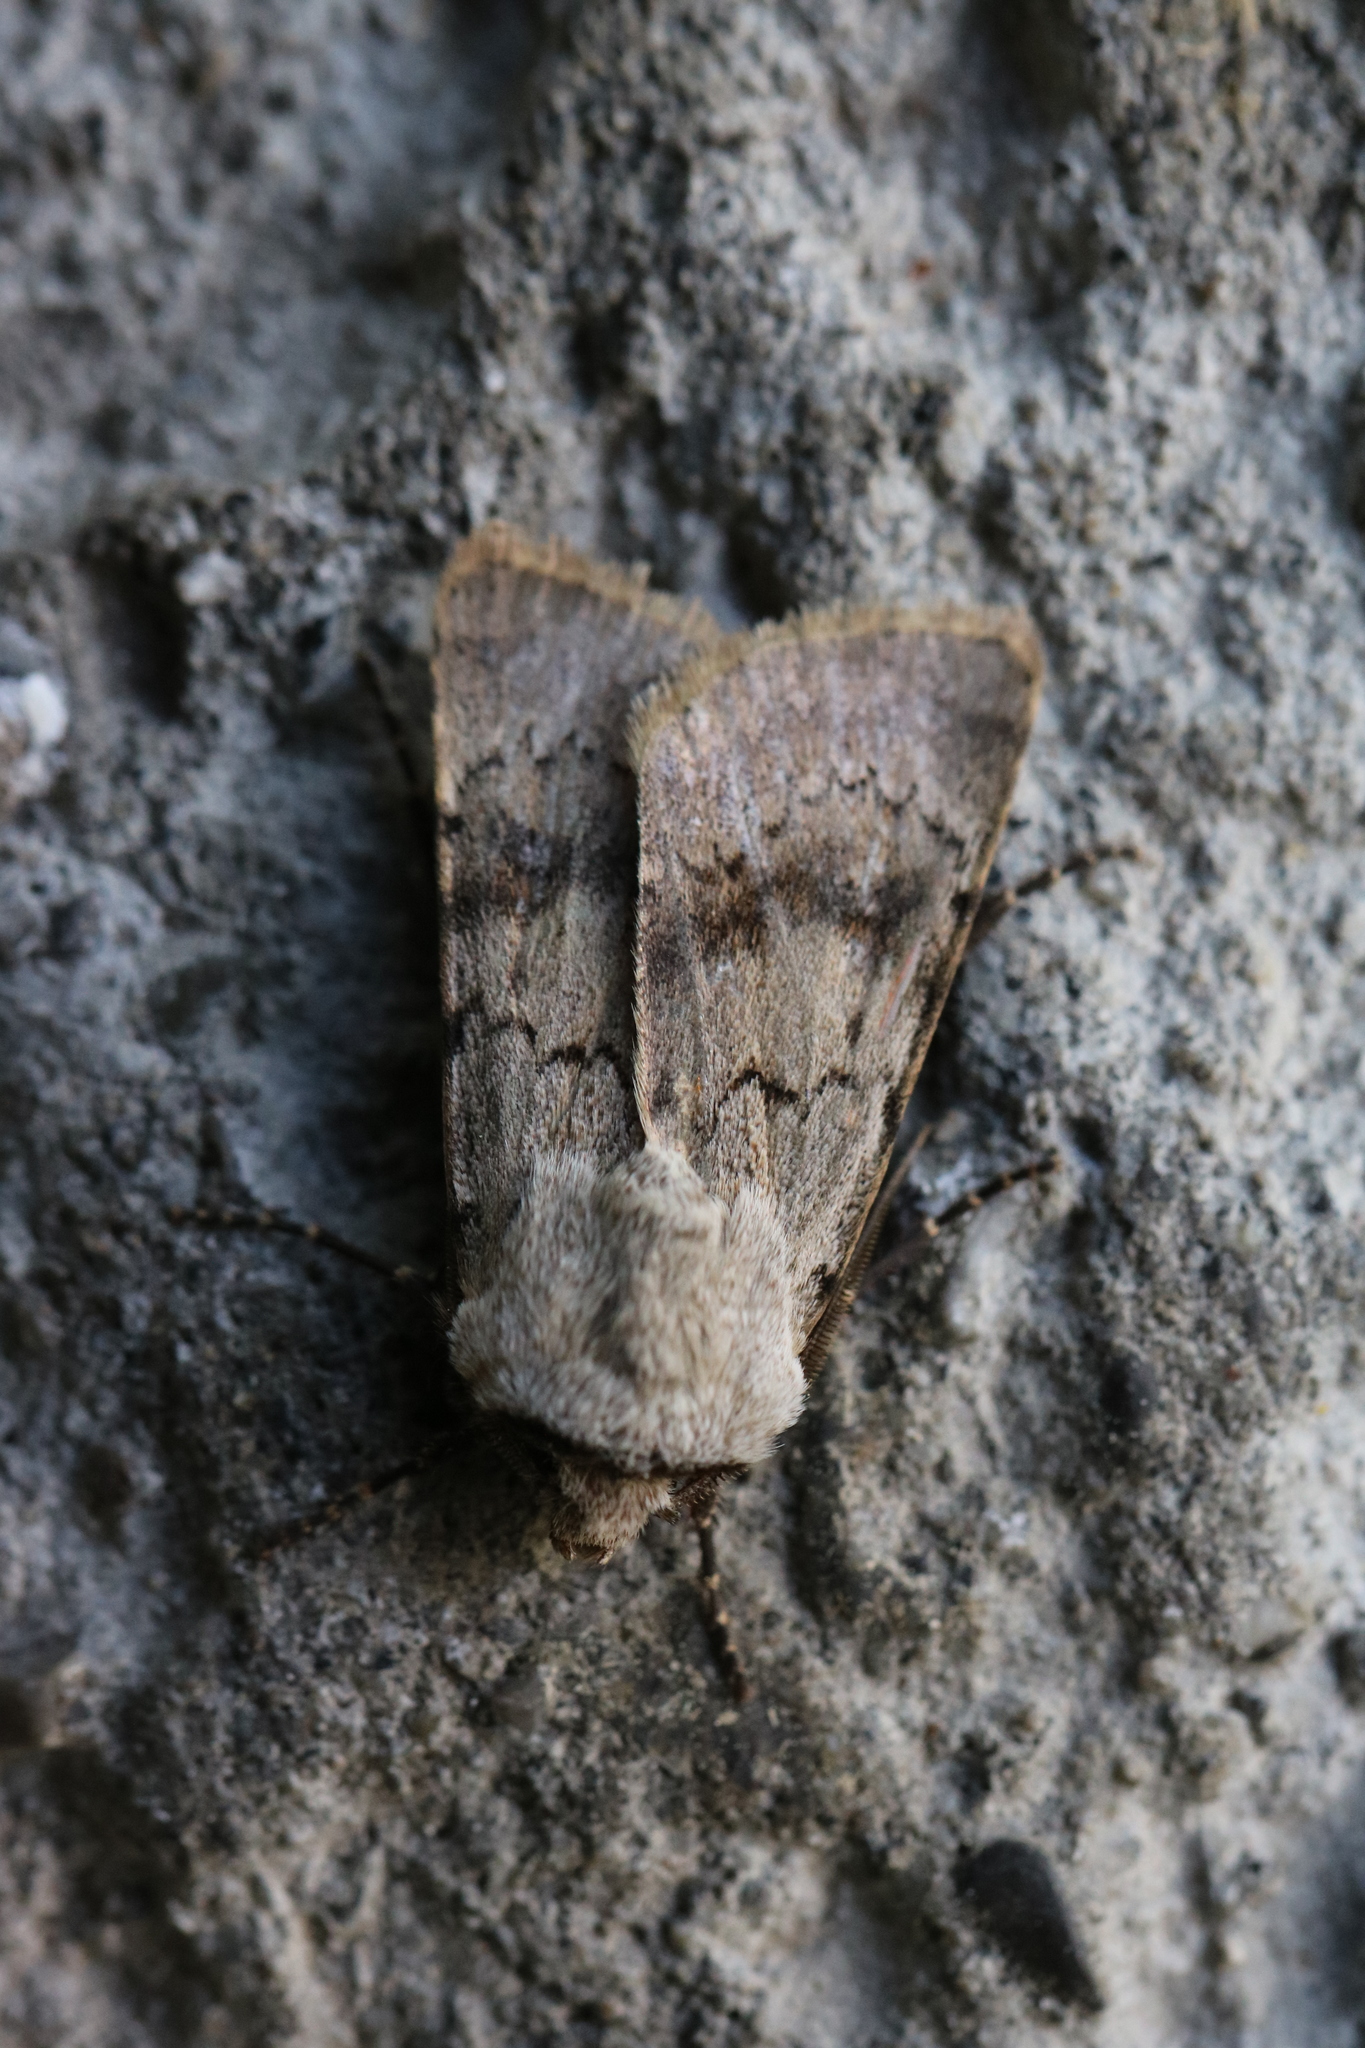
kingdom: Animalia
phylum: Arthropoda
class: Insecta
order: Lepidoptera
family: Noctuidae
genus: Agrotis
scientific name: Agrotis cinerea
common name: Light feathered rustic
